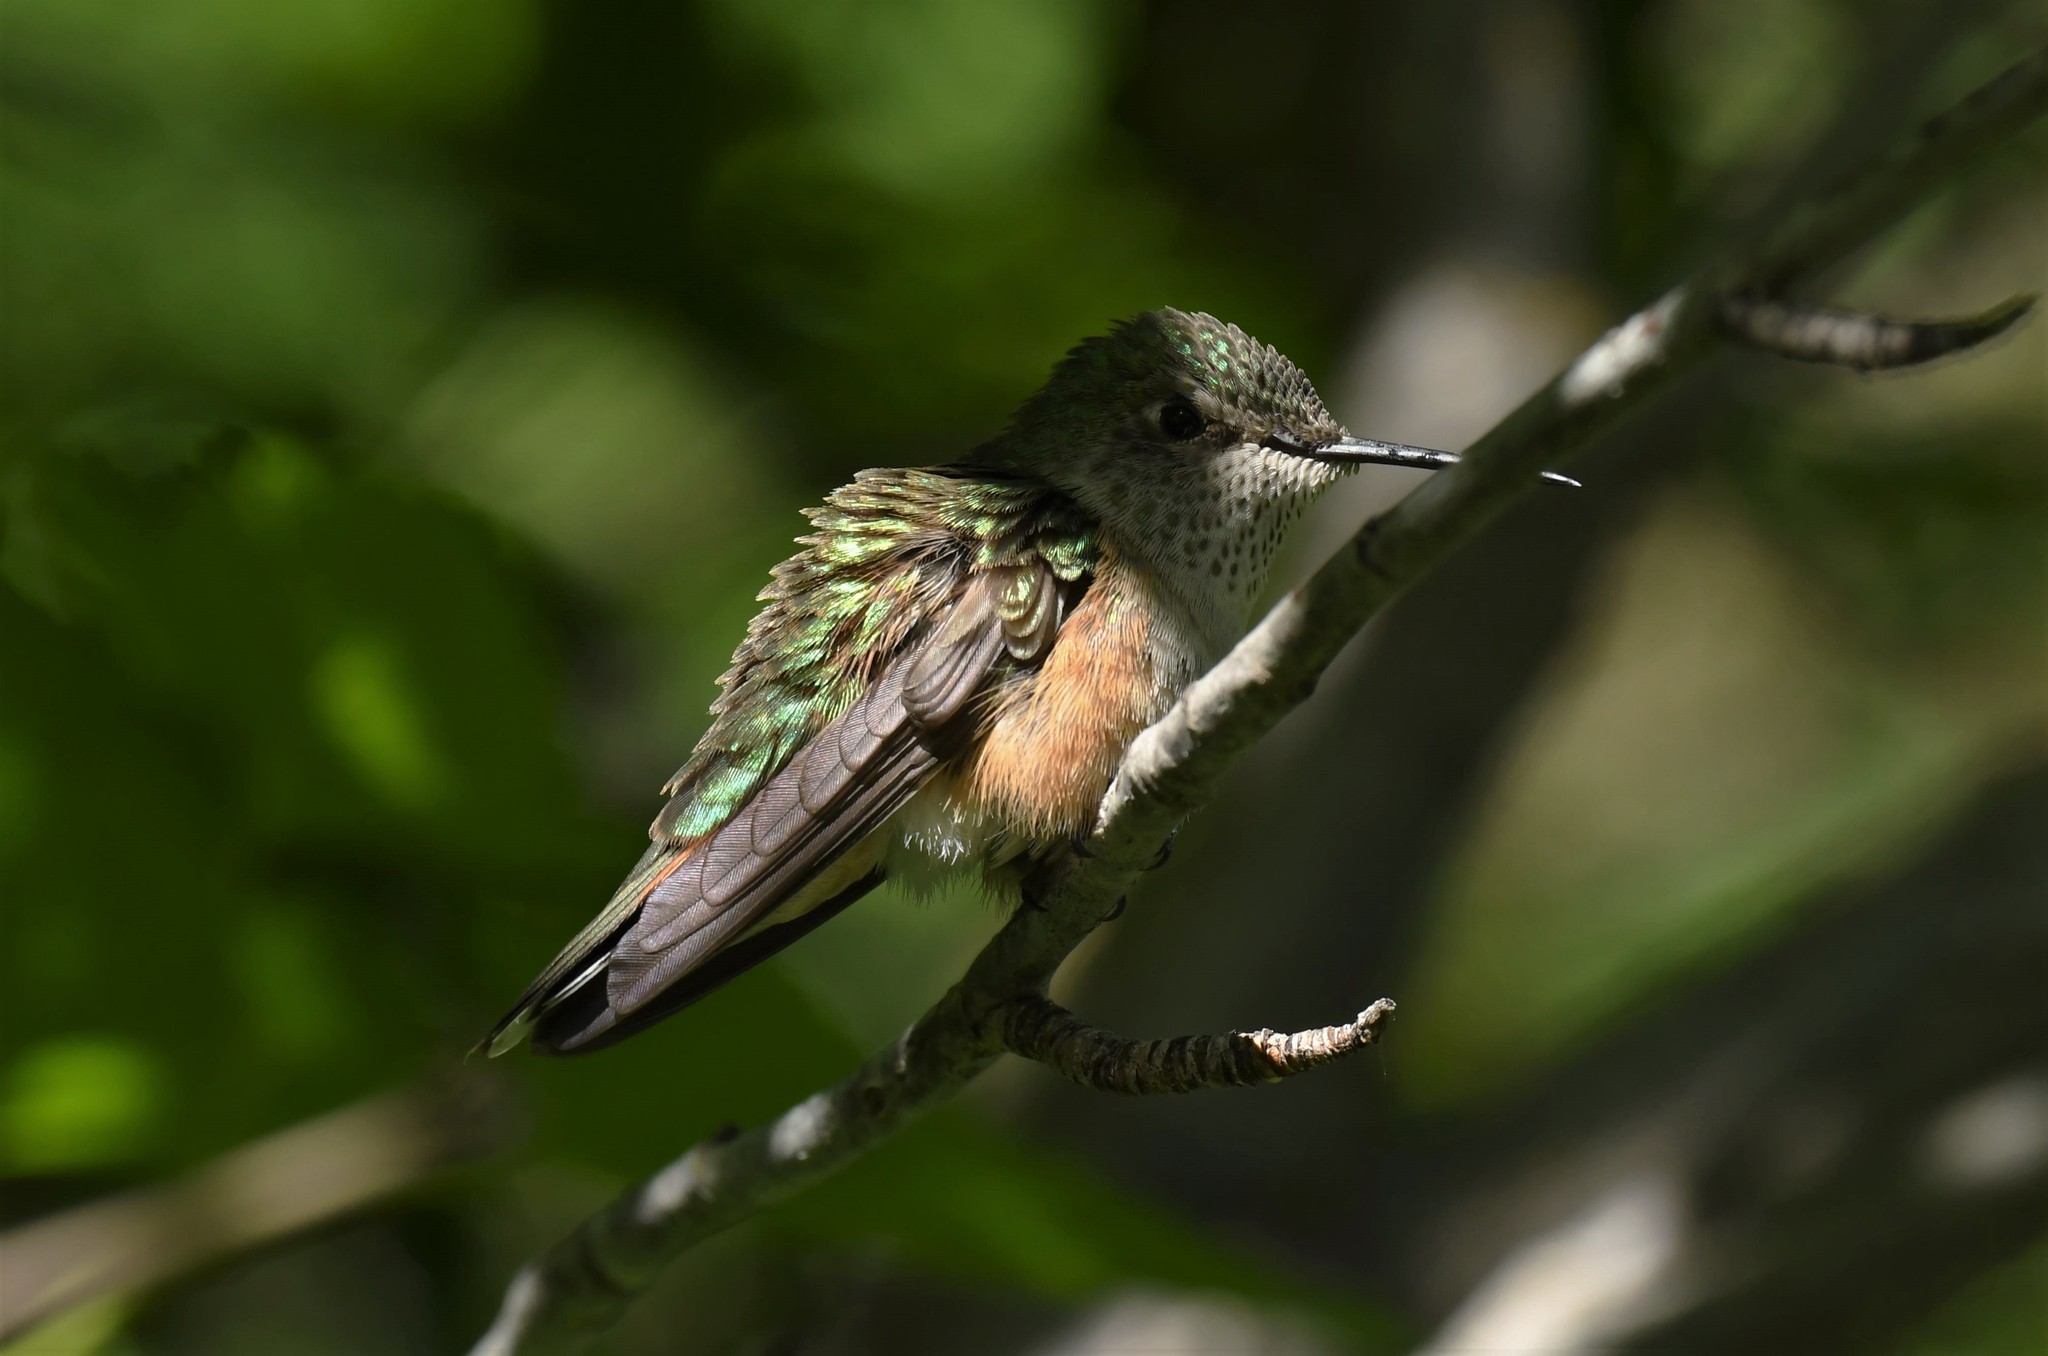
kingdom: Animalia
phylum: Chordata
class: Aves
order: Apodiformes
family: Trochilidae
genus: Selasphorus
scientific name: Selasphorus platycercus
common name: Broad-tailed hummingbird
